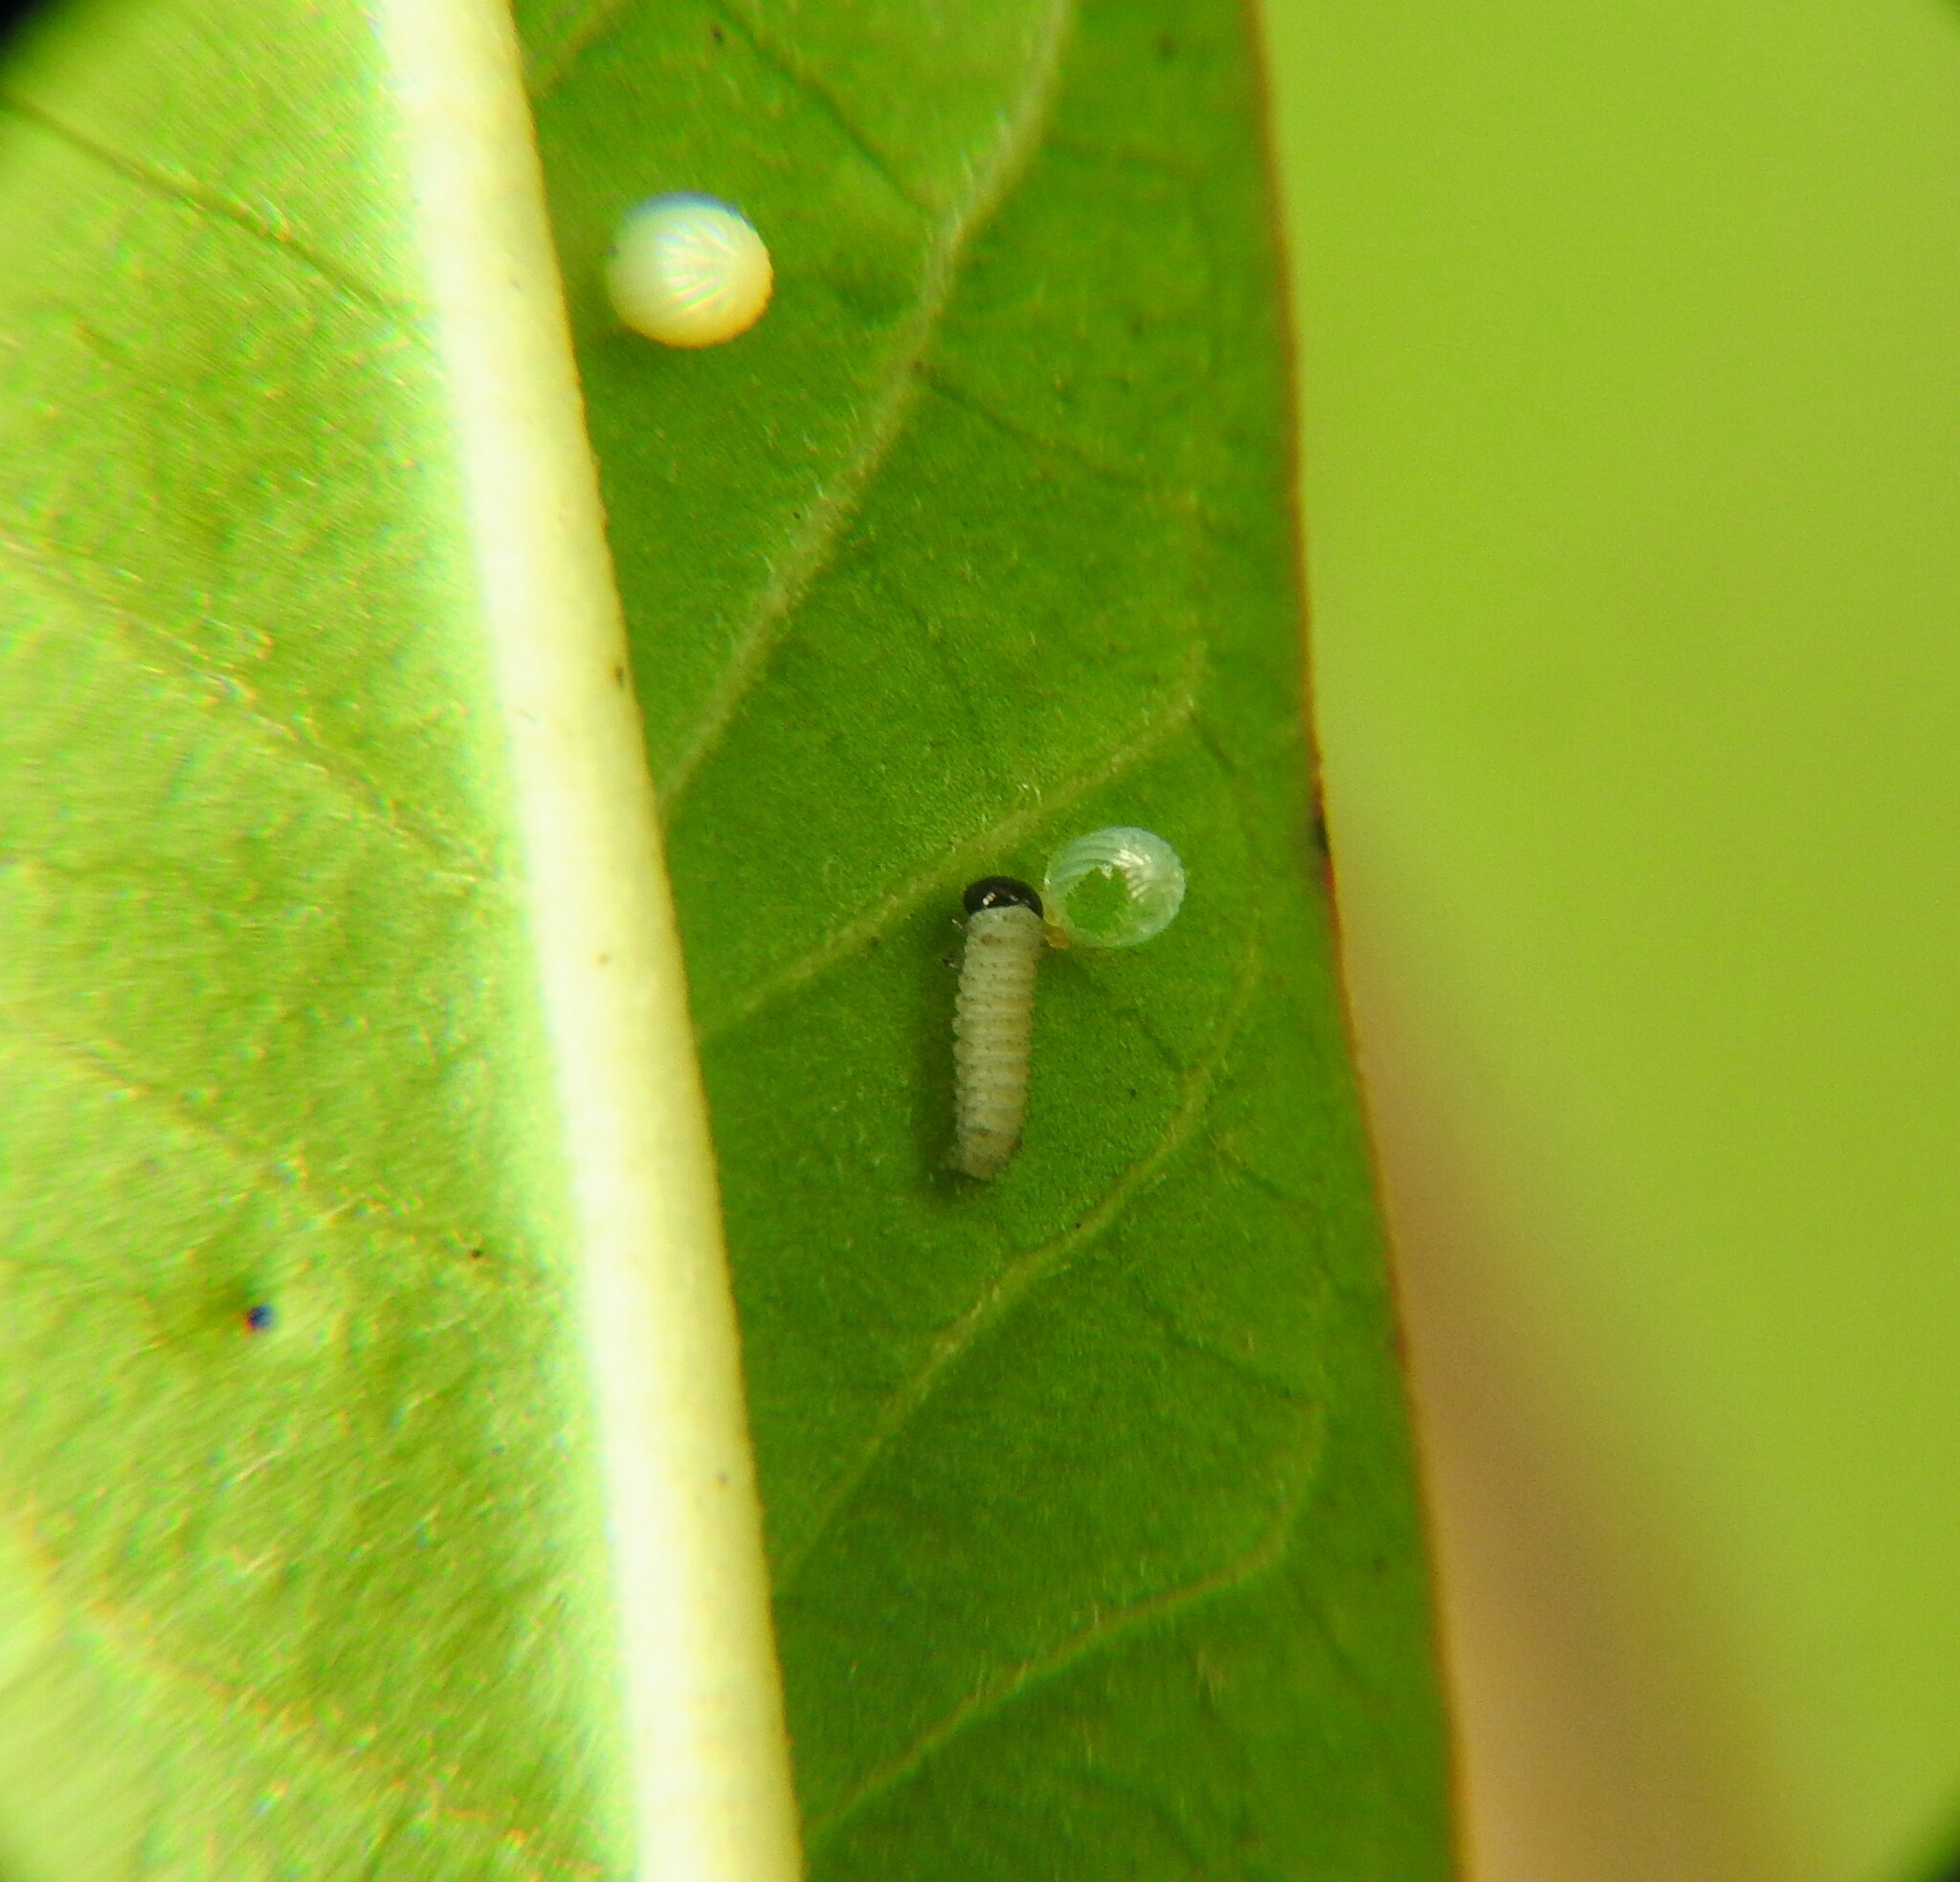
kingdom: Animalia
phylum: Arthropoda
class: Insecta
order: Lepidoptera
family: Nymphalidae
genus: Danaus
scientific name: Danaus plexippus
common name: Monarch
